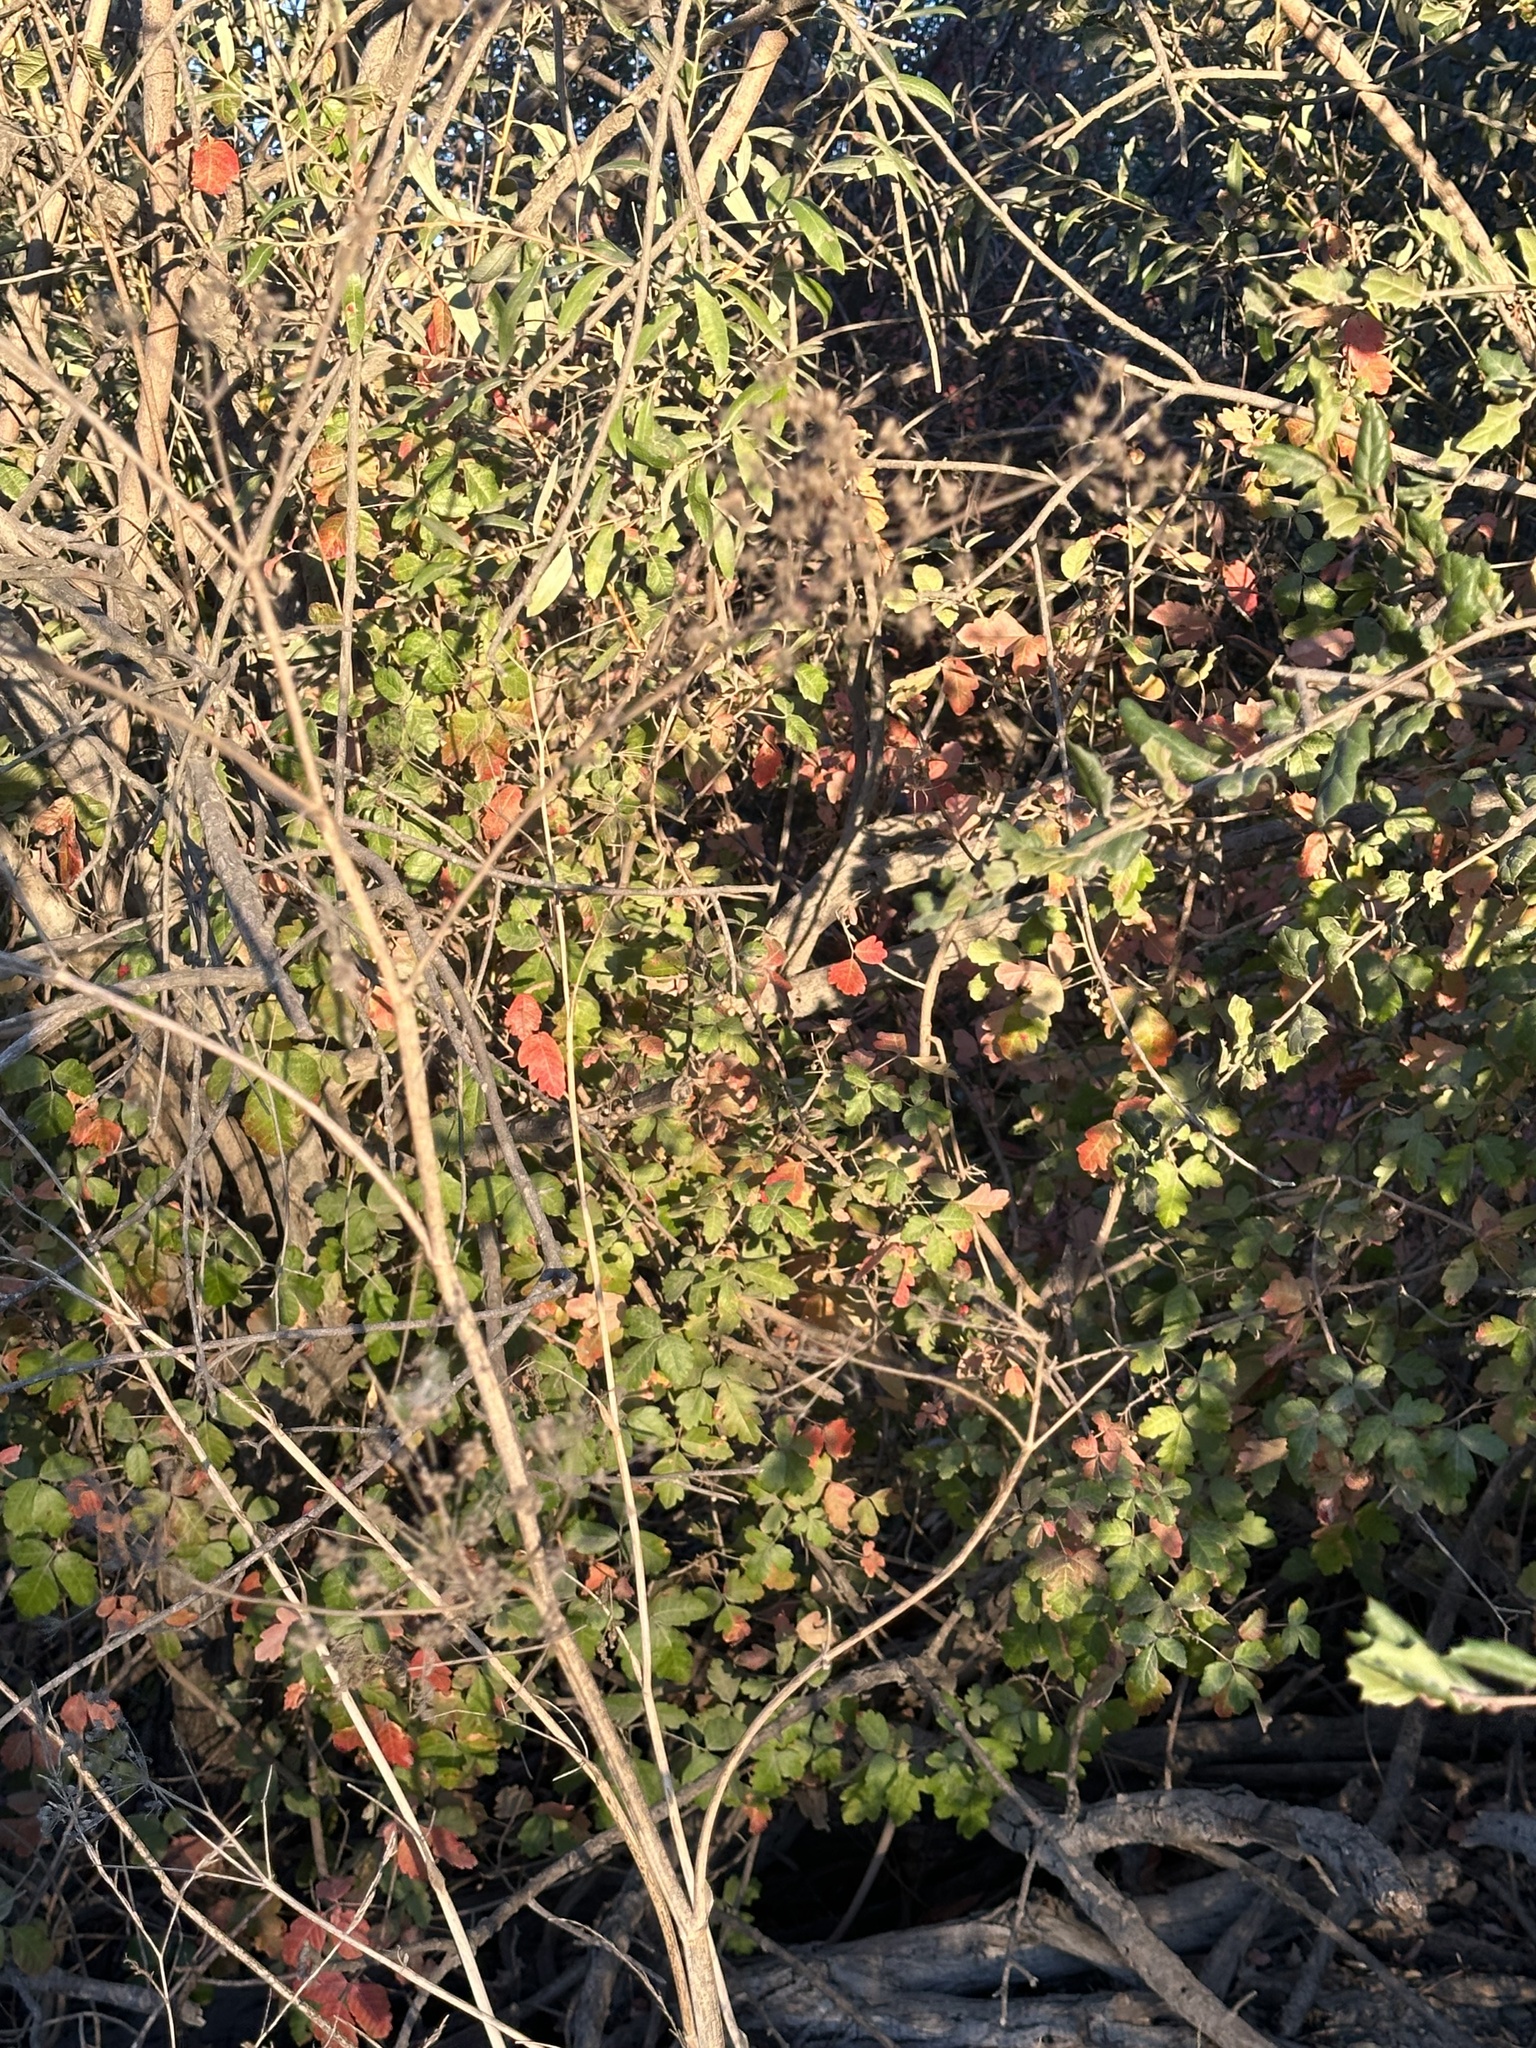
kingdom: Plantae
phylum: Tracheophyta
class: Magnoliopsida
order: Sapindales
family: Anacardiaceae
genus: Toxicodendron
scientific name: Toxicodendron diversilobum
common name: Pacific poison-oak
